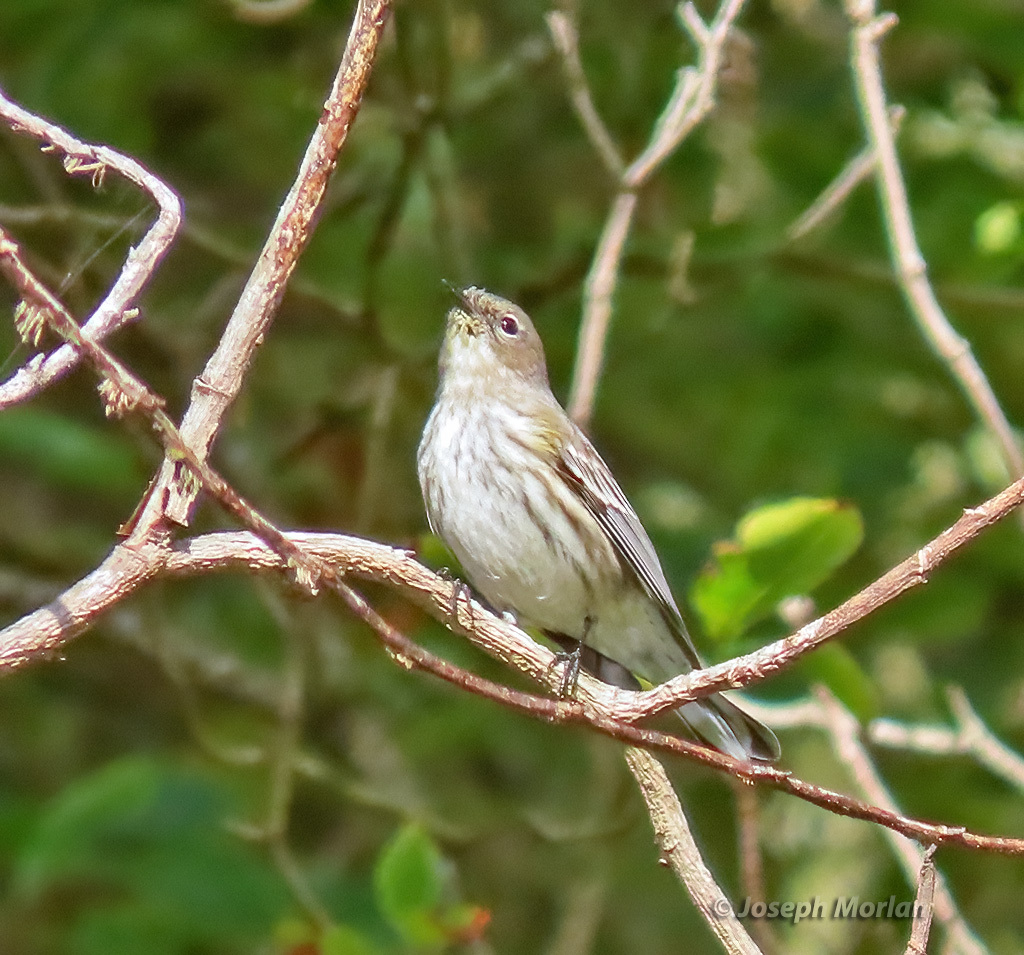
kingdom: Animalia
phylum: Chordata
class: Aves
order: Passeriformes
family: Parulidae
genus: Setophaga
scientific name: Setophaga coronata
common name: Myrtle warbler
